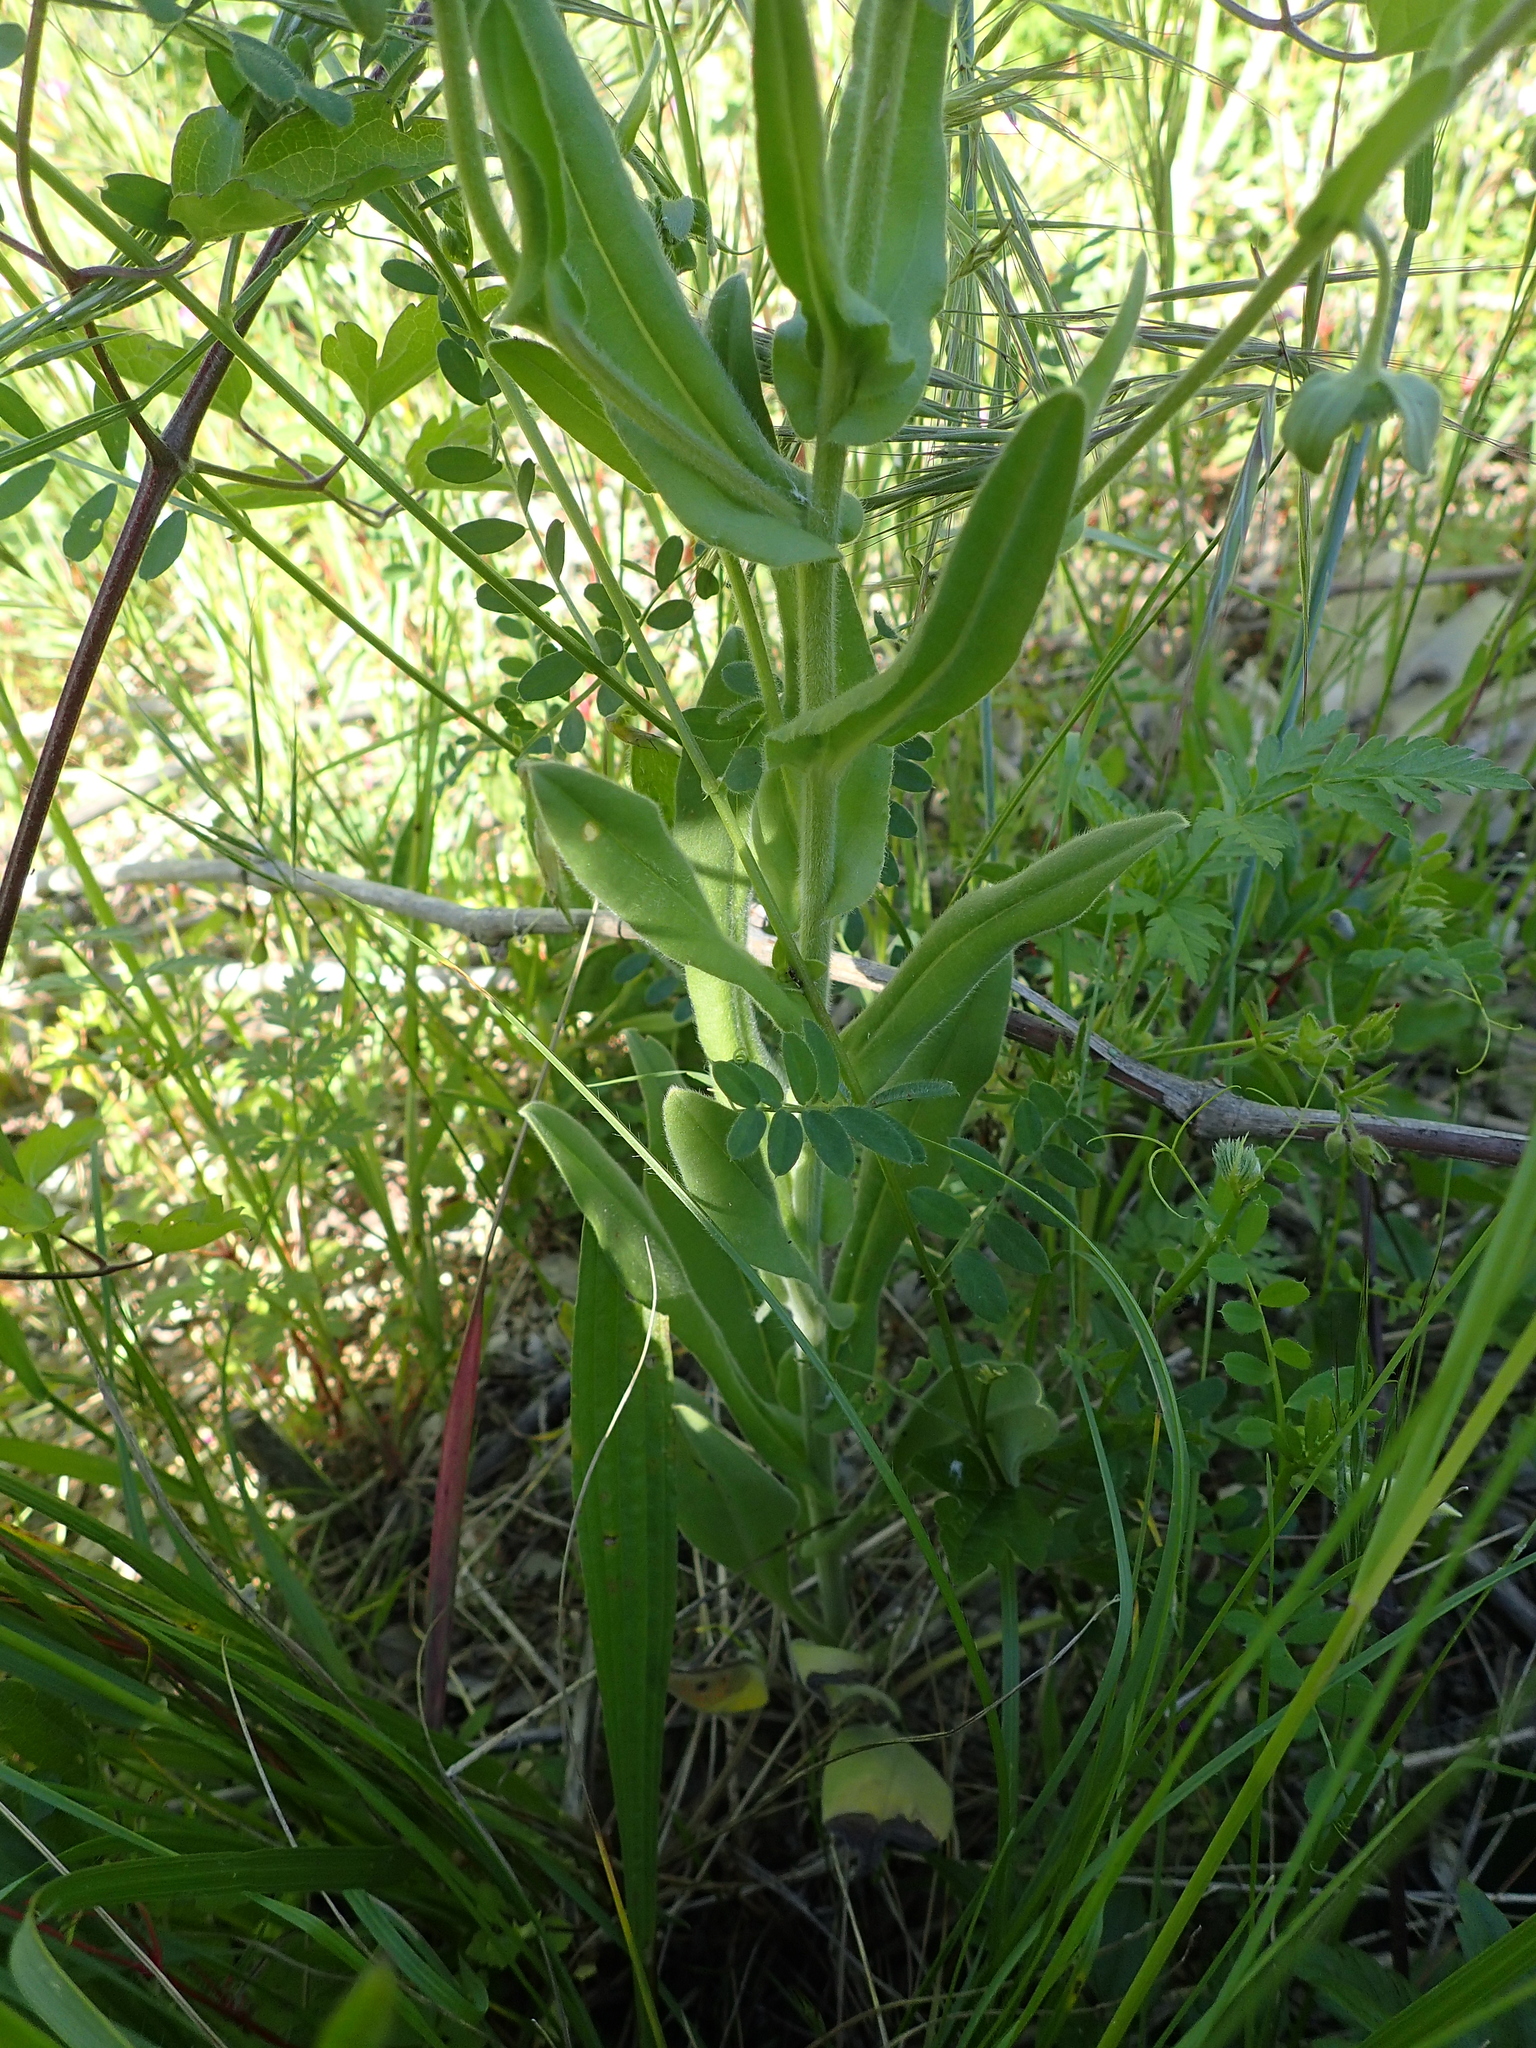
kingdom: Plantae
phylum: Tracheophyta
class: Magnoliopsida
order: Boraginales
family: Boraginaceae
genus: Cynoglossum
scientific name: Cynoglossum creticum
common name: Blue hound's tongue
